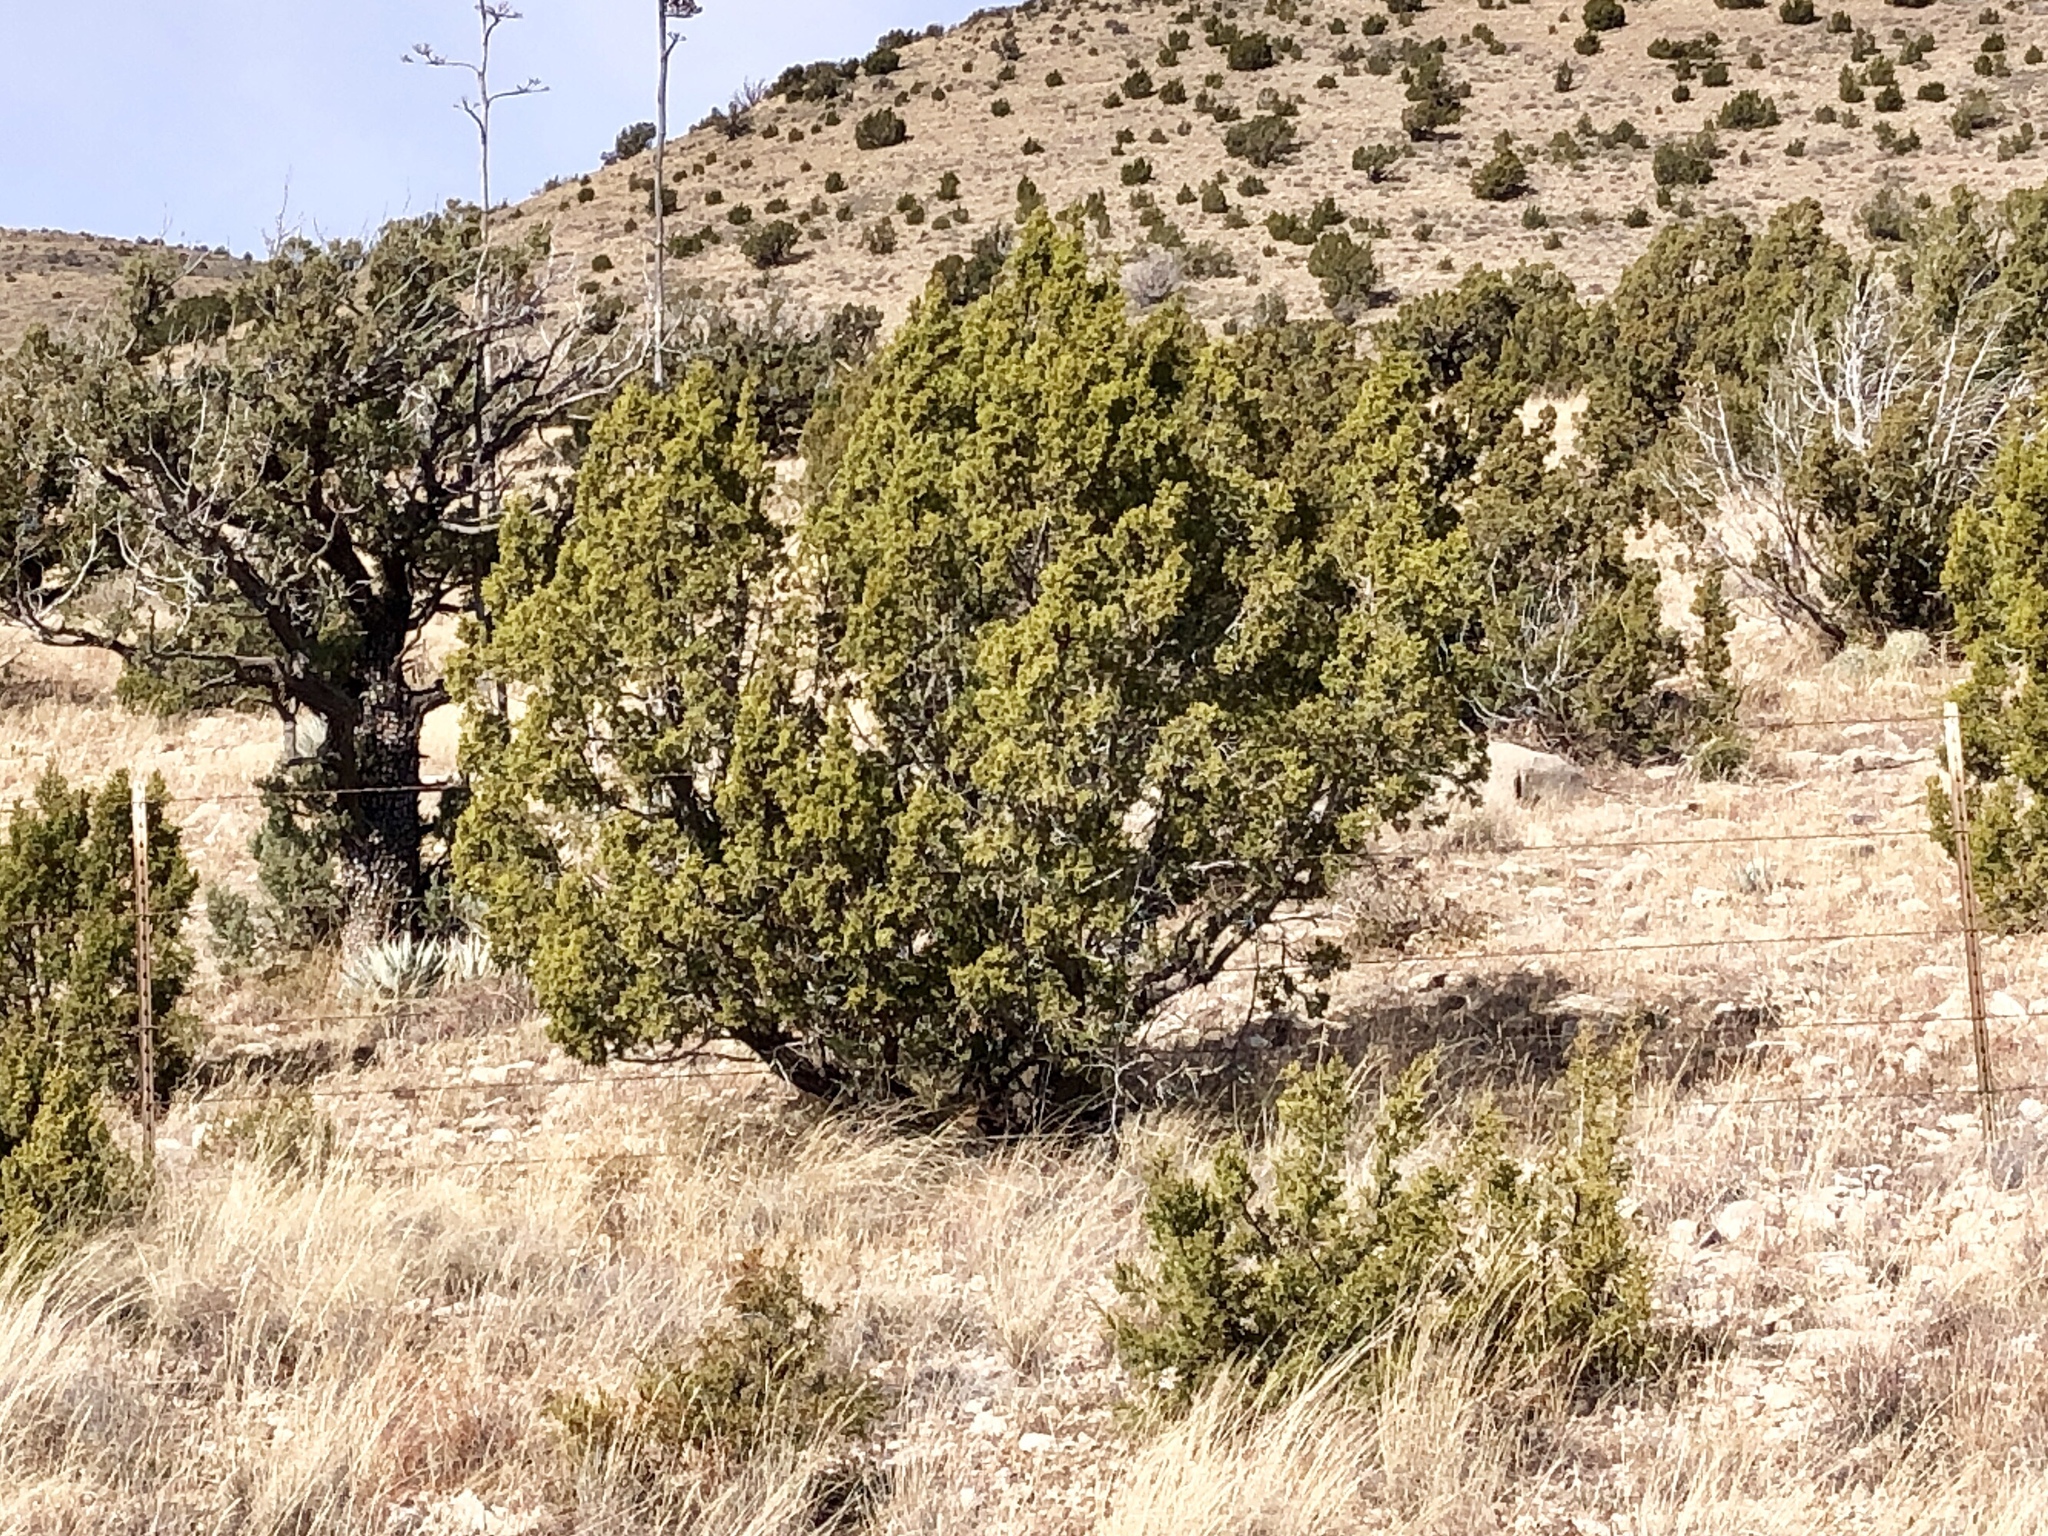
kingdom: Plantae
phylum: Tracheophyta
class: Pinopsida
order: Pinales
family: Cupressaceae
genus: Juniperus
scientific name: Juniperus monosperma
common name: One-seed juniper
